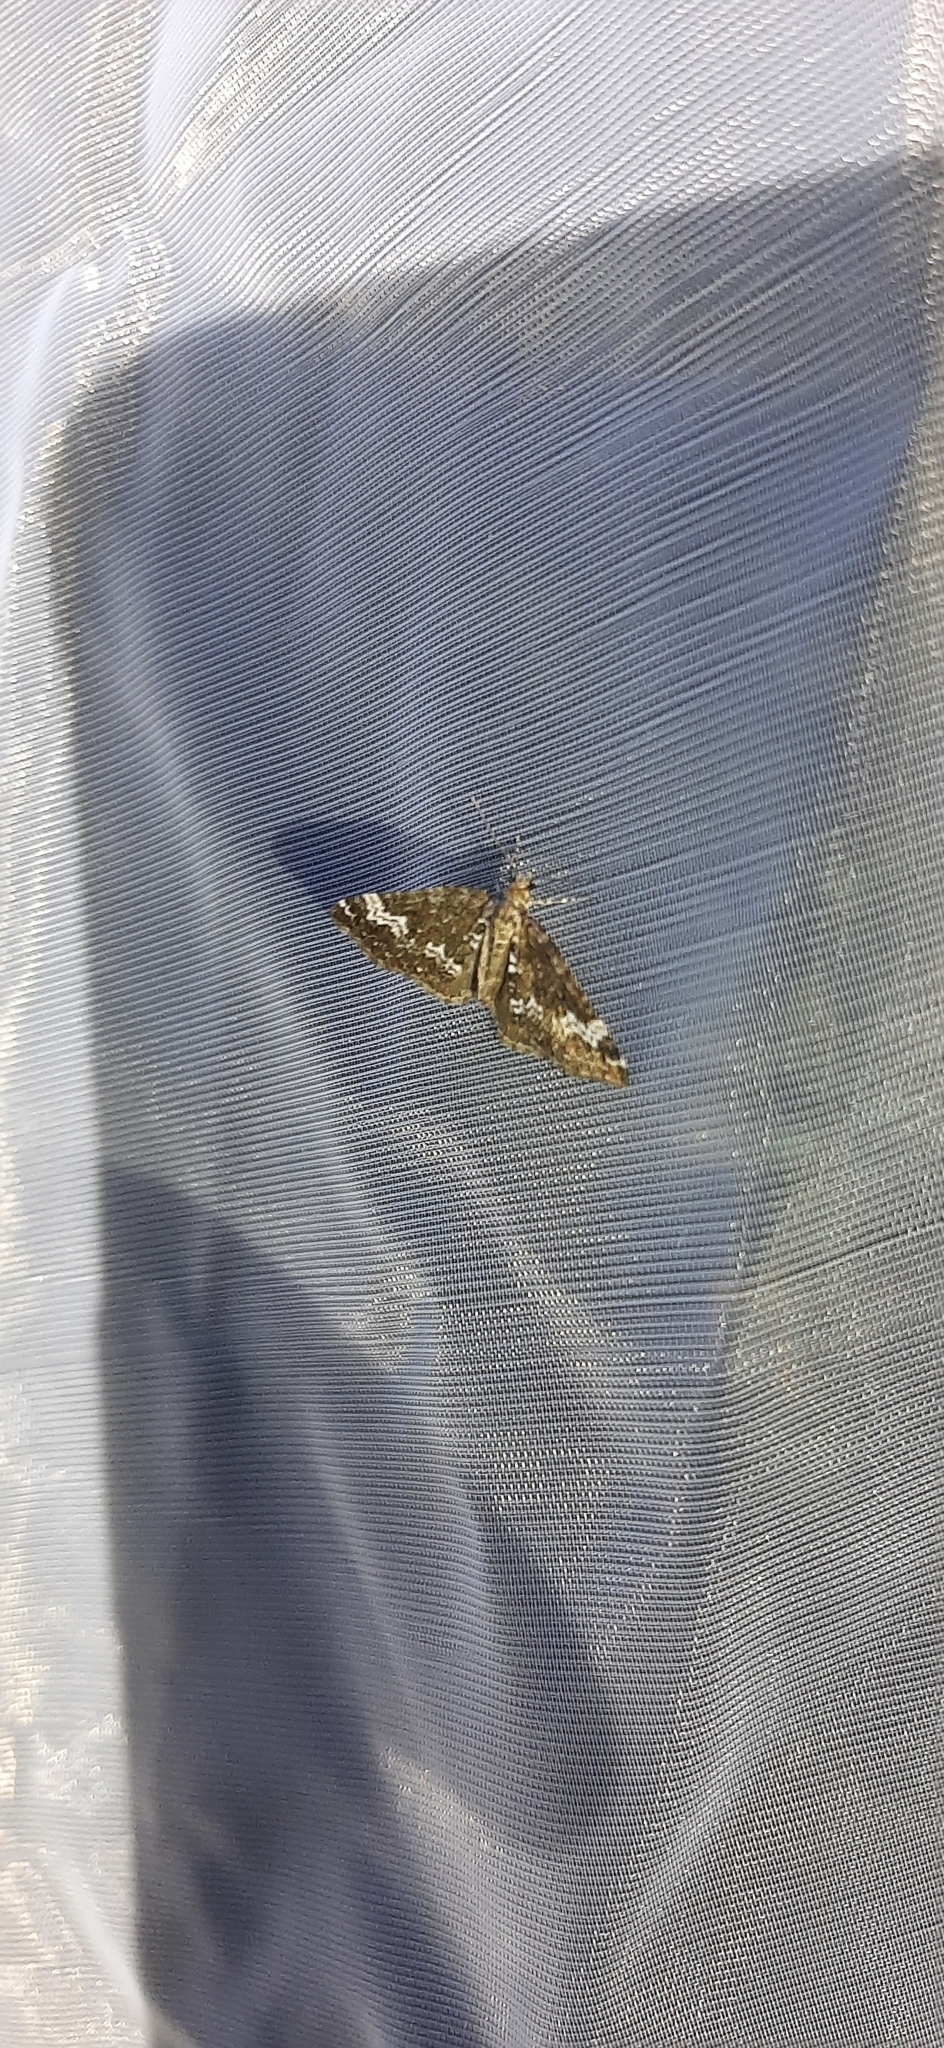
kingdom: Animalia
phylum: Arthropoda
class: Insecta
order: Lepidoptera
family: Geometridae
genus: Perizoma
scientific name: Perizoma alchemillata
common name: Small rivulet
